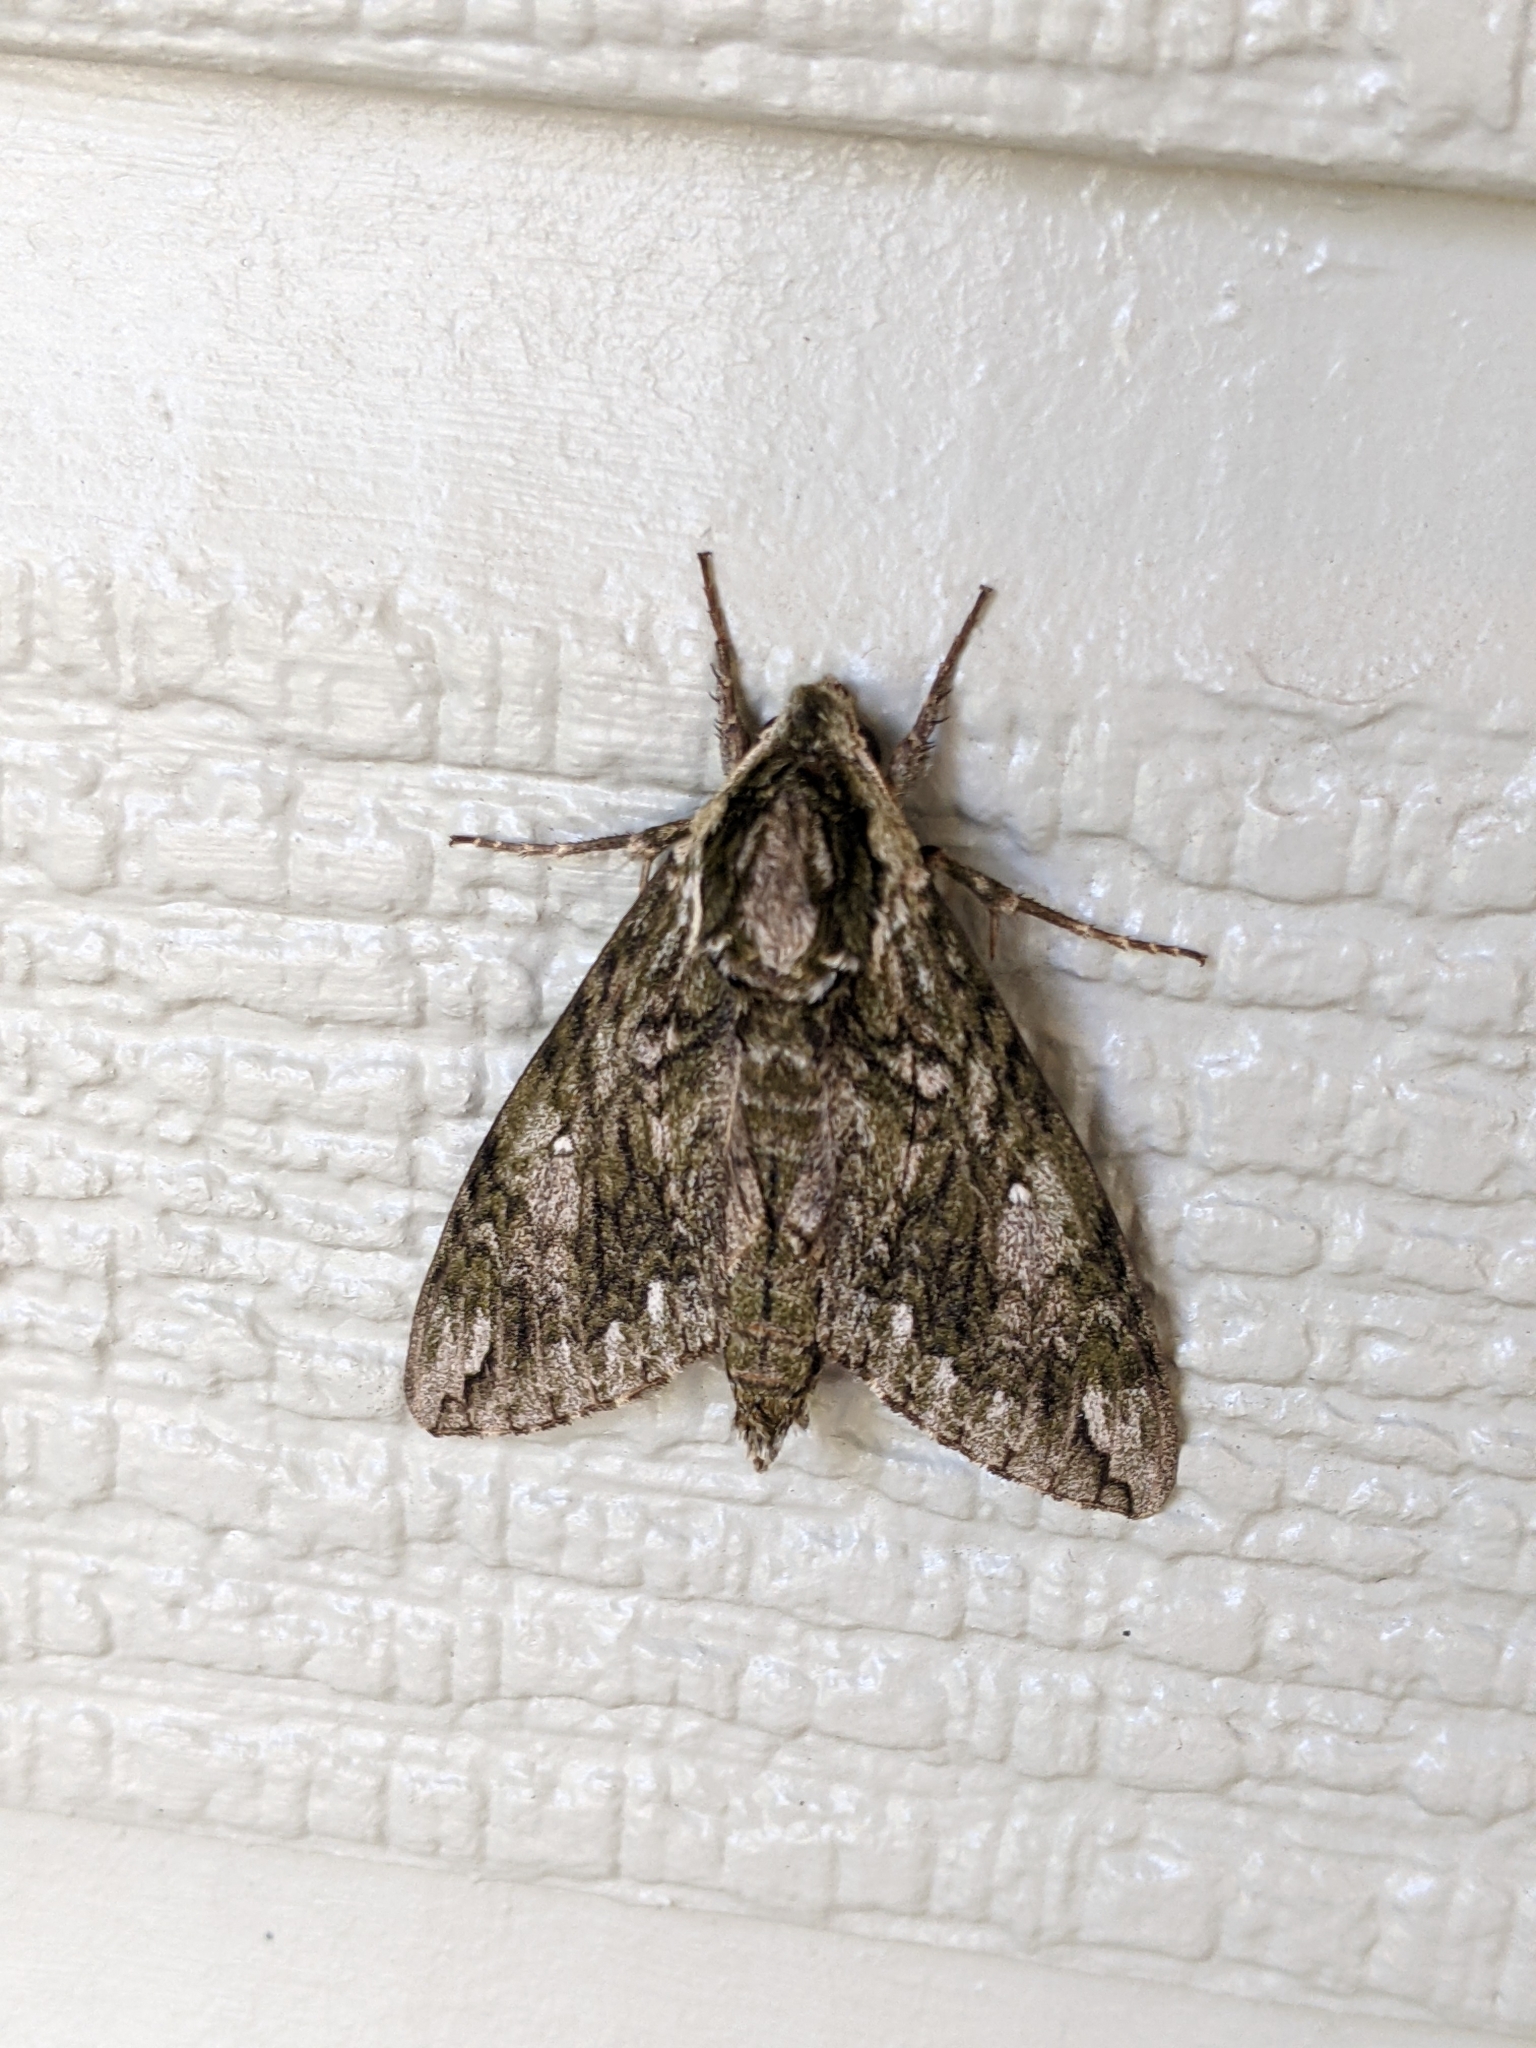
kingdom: Animalia
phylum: Arthropoda
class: Insecta
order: Lepidoptera
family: Sphingidae
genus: Ceratomia
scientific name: Ceratomia hageni
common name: Hagen's sphinx
